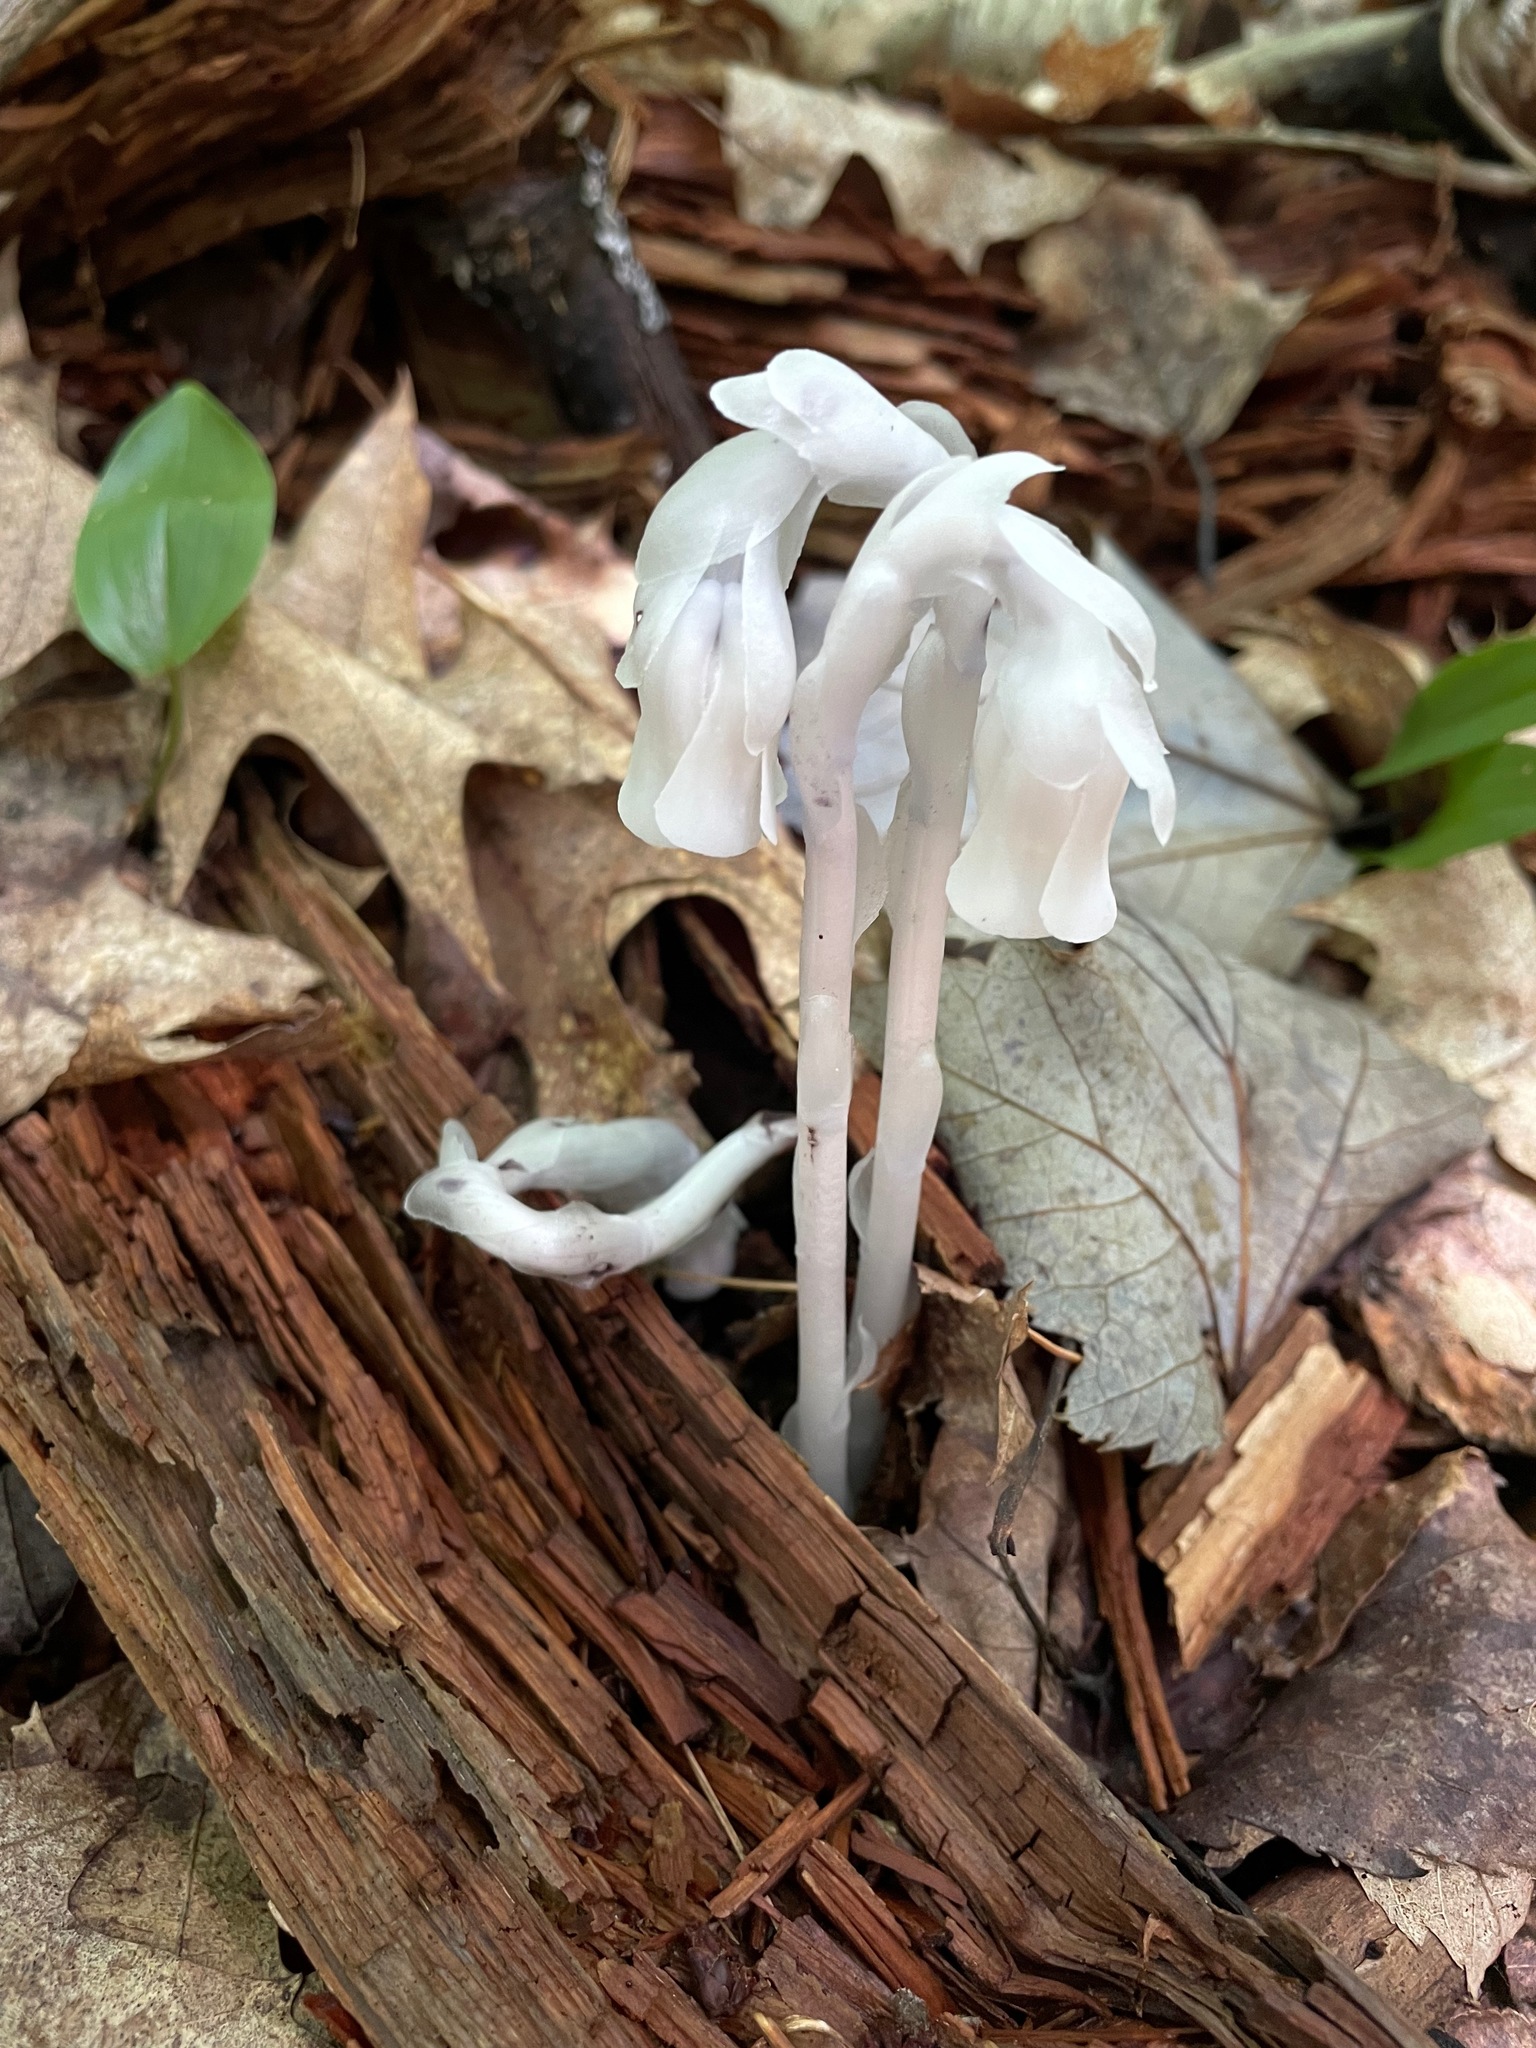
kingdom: Plantae
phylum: Tracheophyta
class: Magnoliopsida
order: Ericales
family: Ericaceae
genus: Monotropa
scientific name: Monotropa uniflora
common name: Convulsion root
